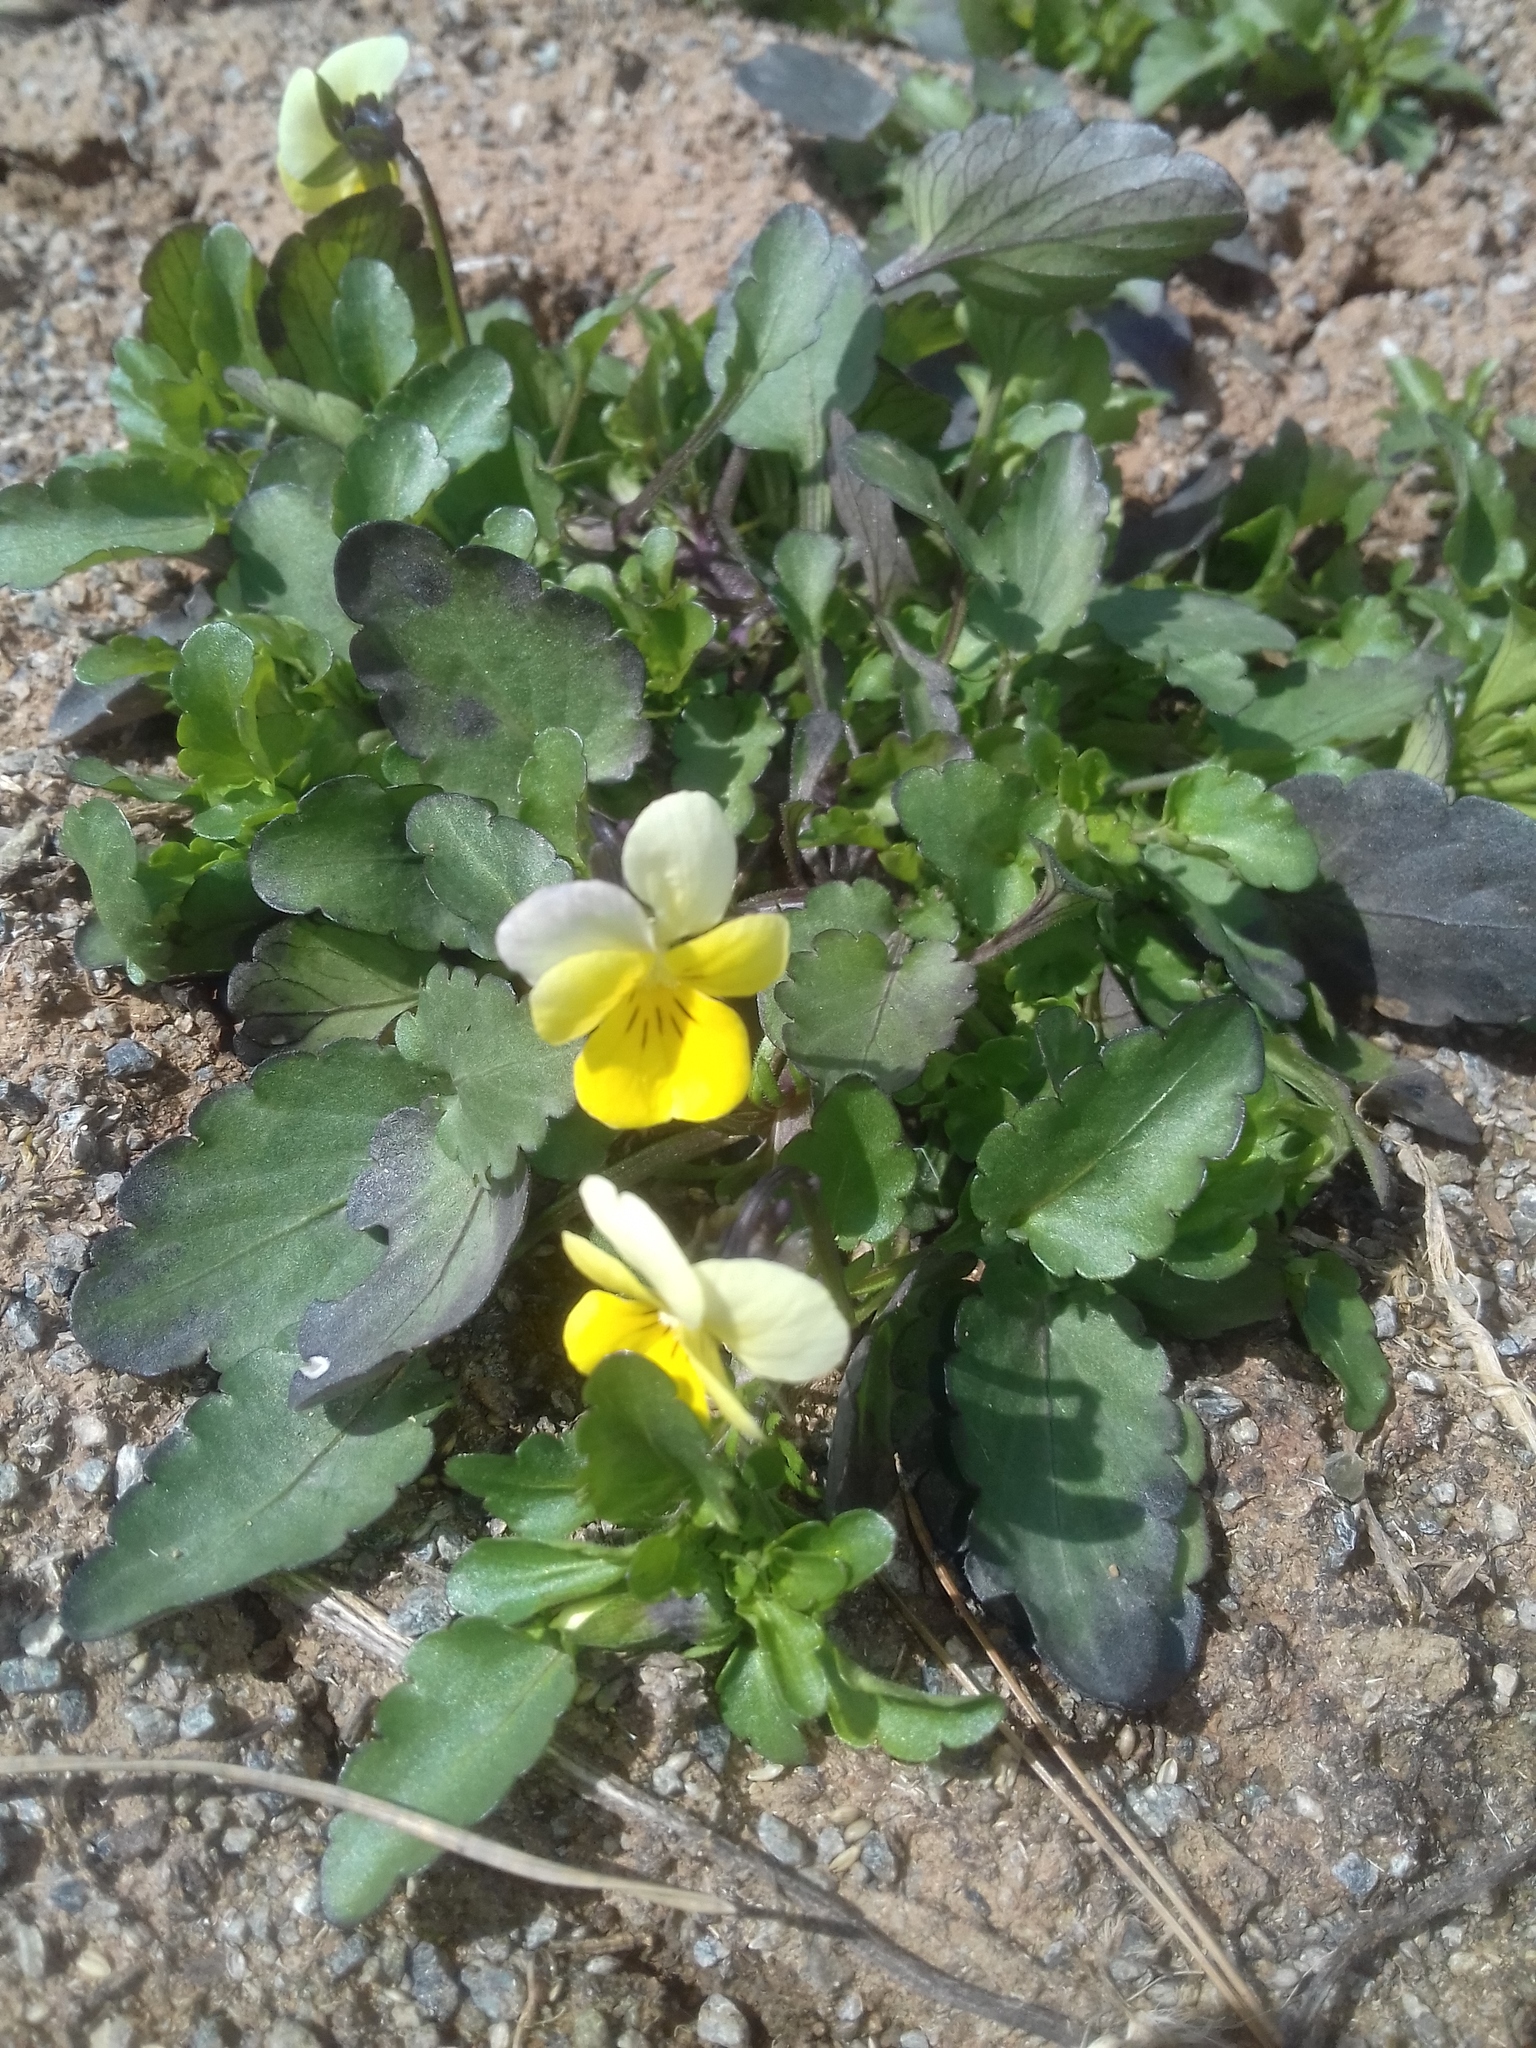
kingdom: Plantae
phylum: Tracheophyta
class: Magnoliopsida
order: Malpighiales
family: Violaceae
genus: Viola
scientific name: Viola arvensis
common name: Field pansy
